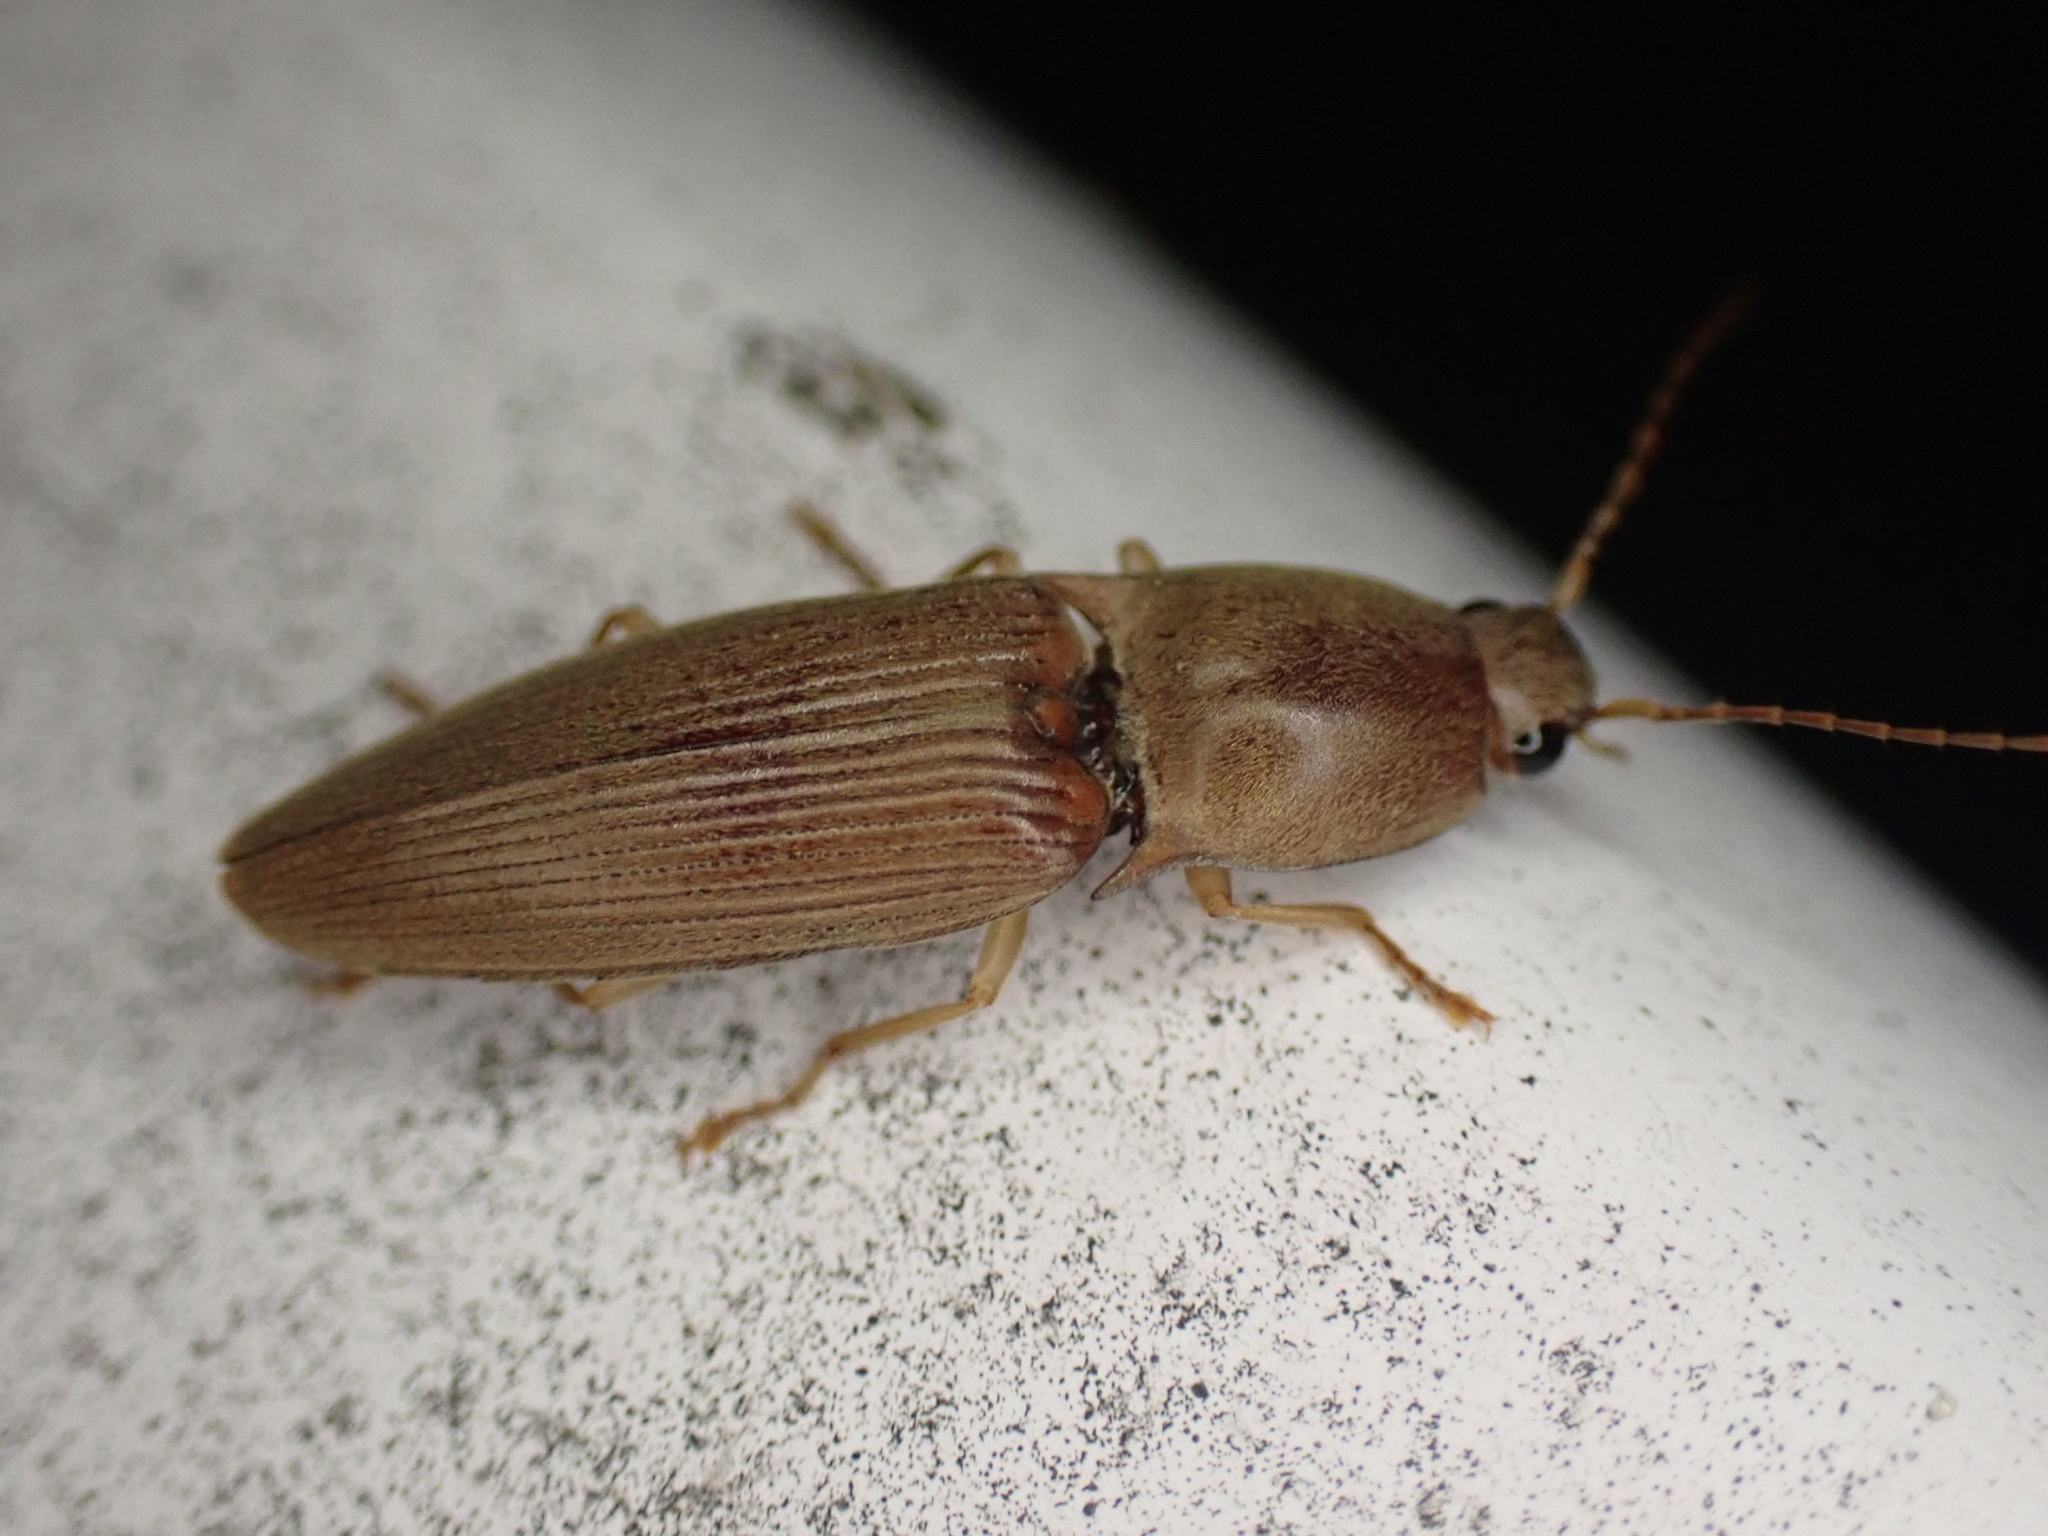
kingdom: Animalia
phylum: Arthropoda
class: Insecta
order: Coleoptera
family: Elateridae
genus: Monocrepidius
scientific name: Monocrepidius lividus
